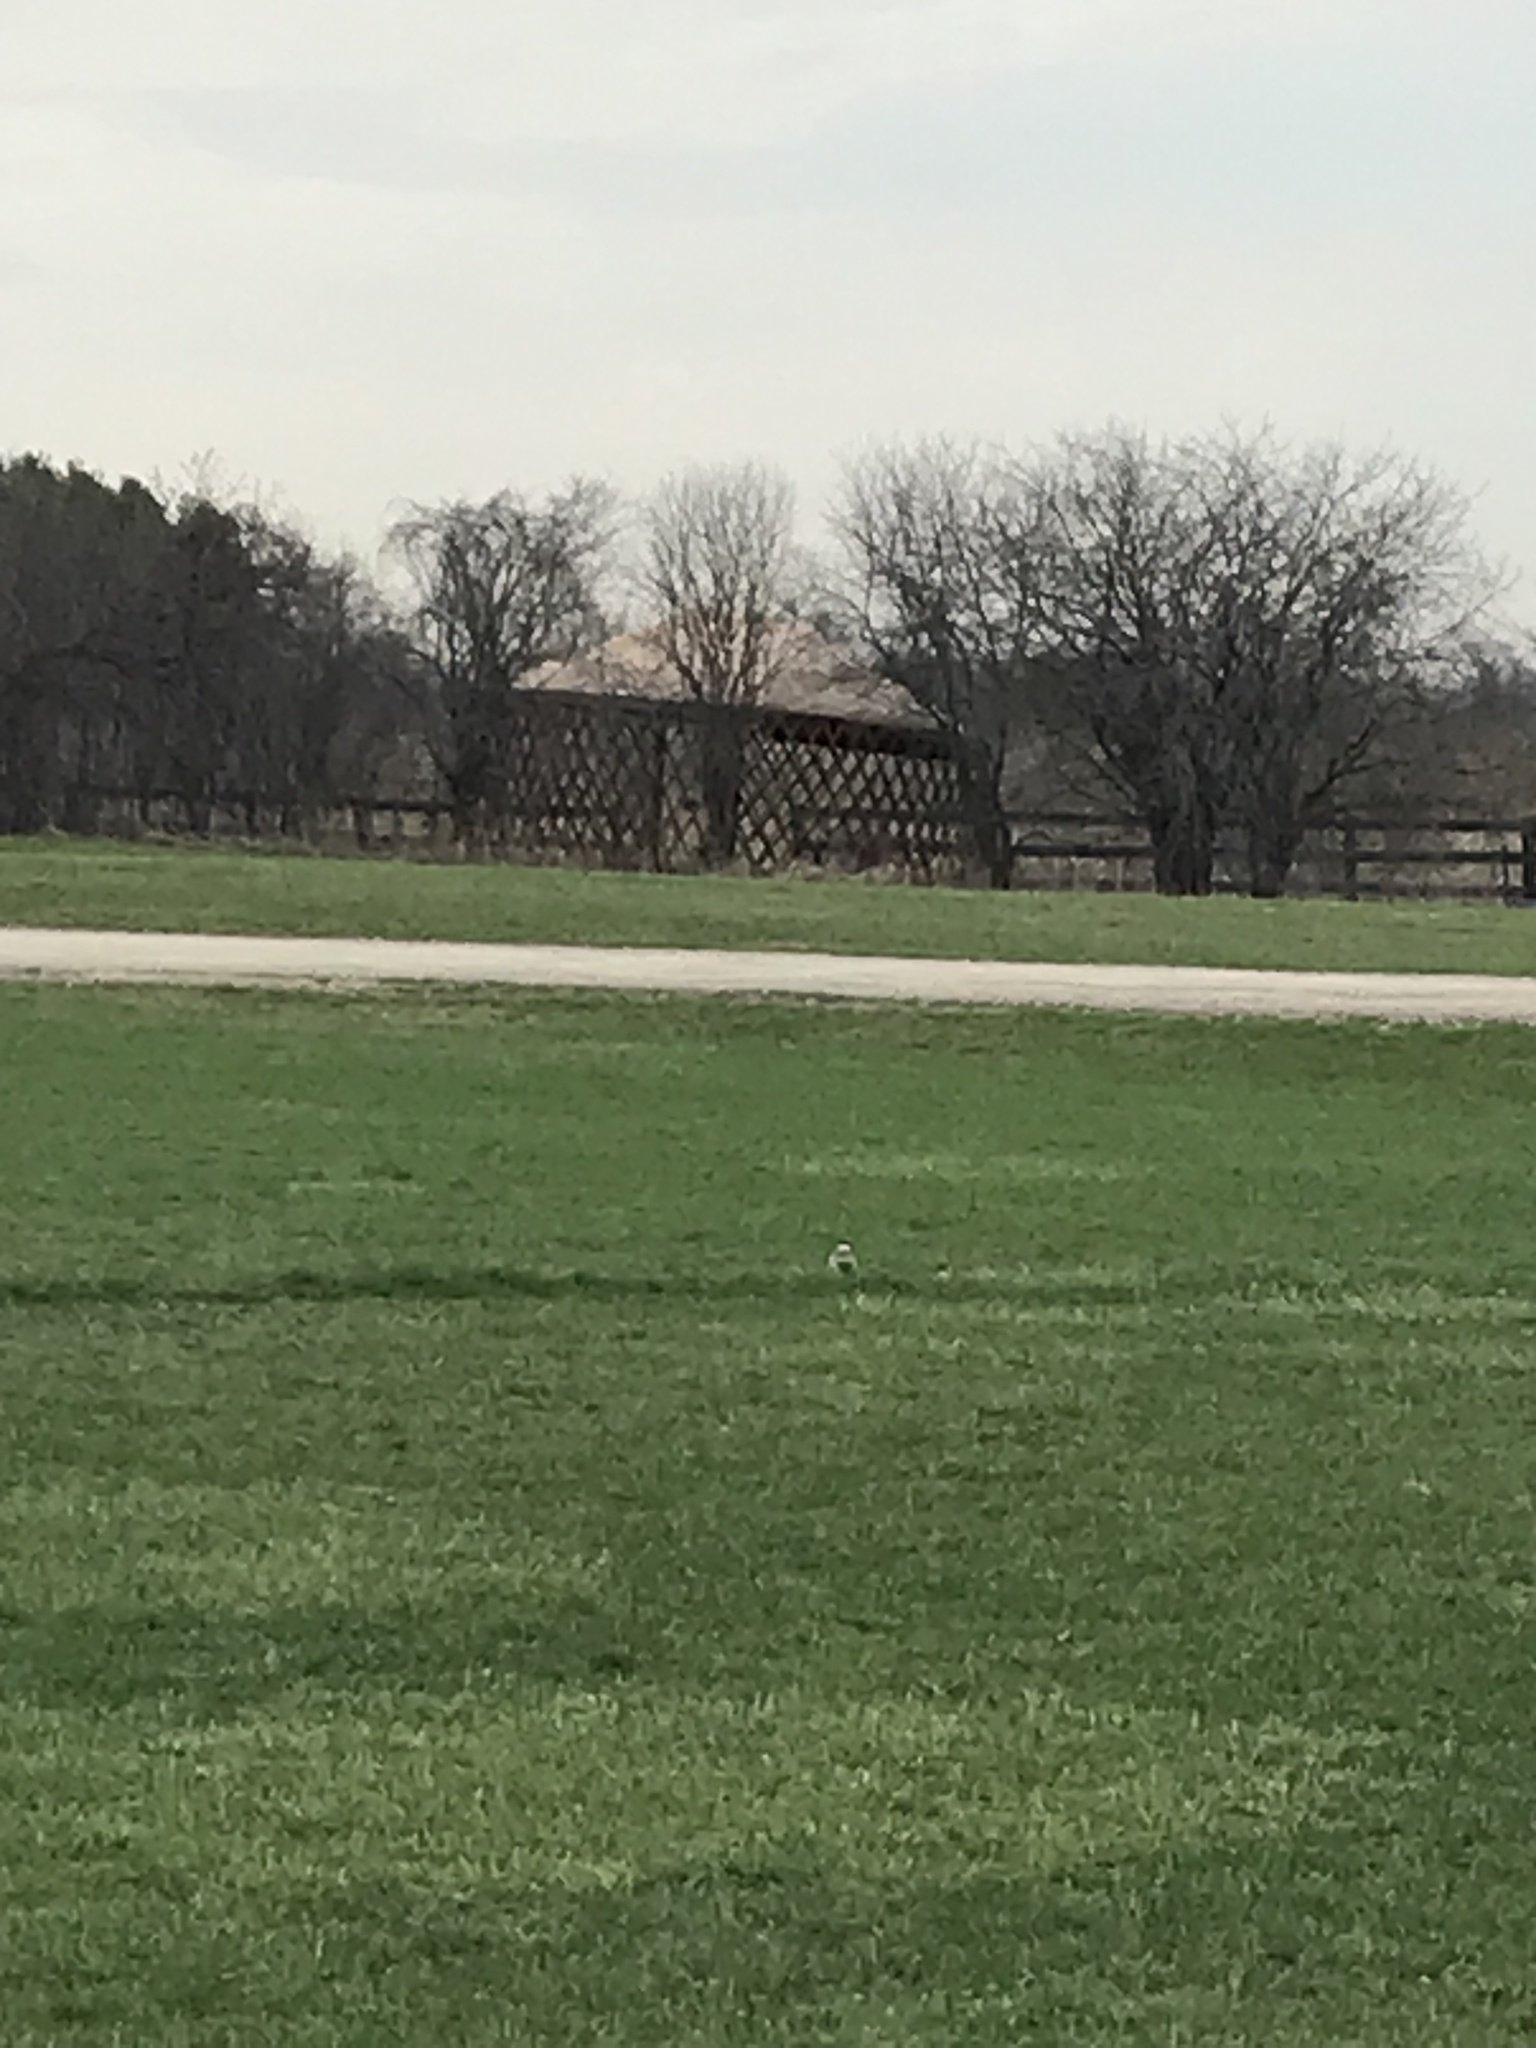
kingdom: Animalia
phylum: Chordata
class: Aves
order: Charadriiformes
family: Charadriidae
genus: Charadrius
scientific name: Charadrius vociferus
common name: Killdeer
